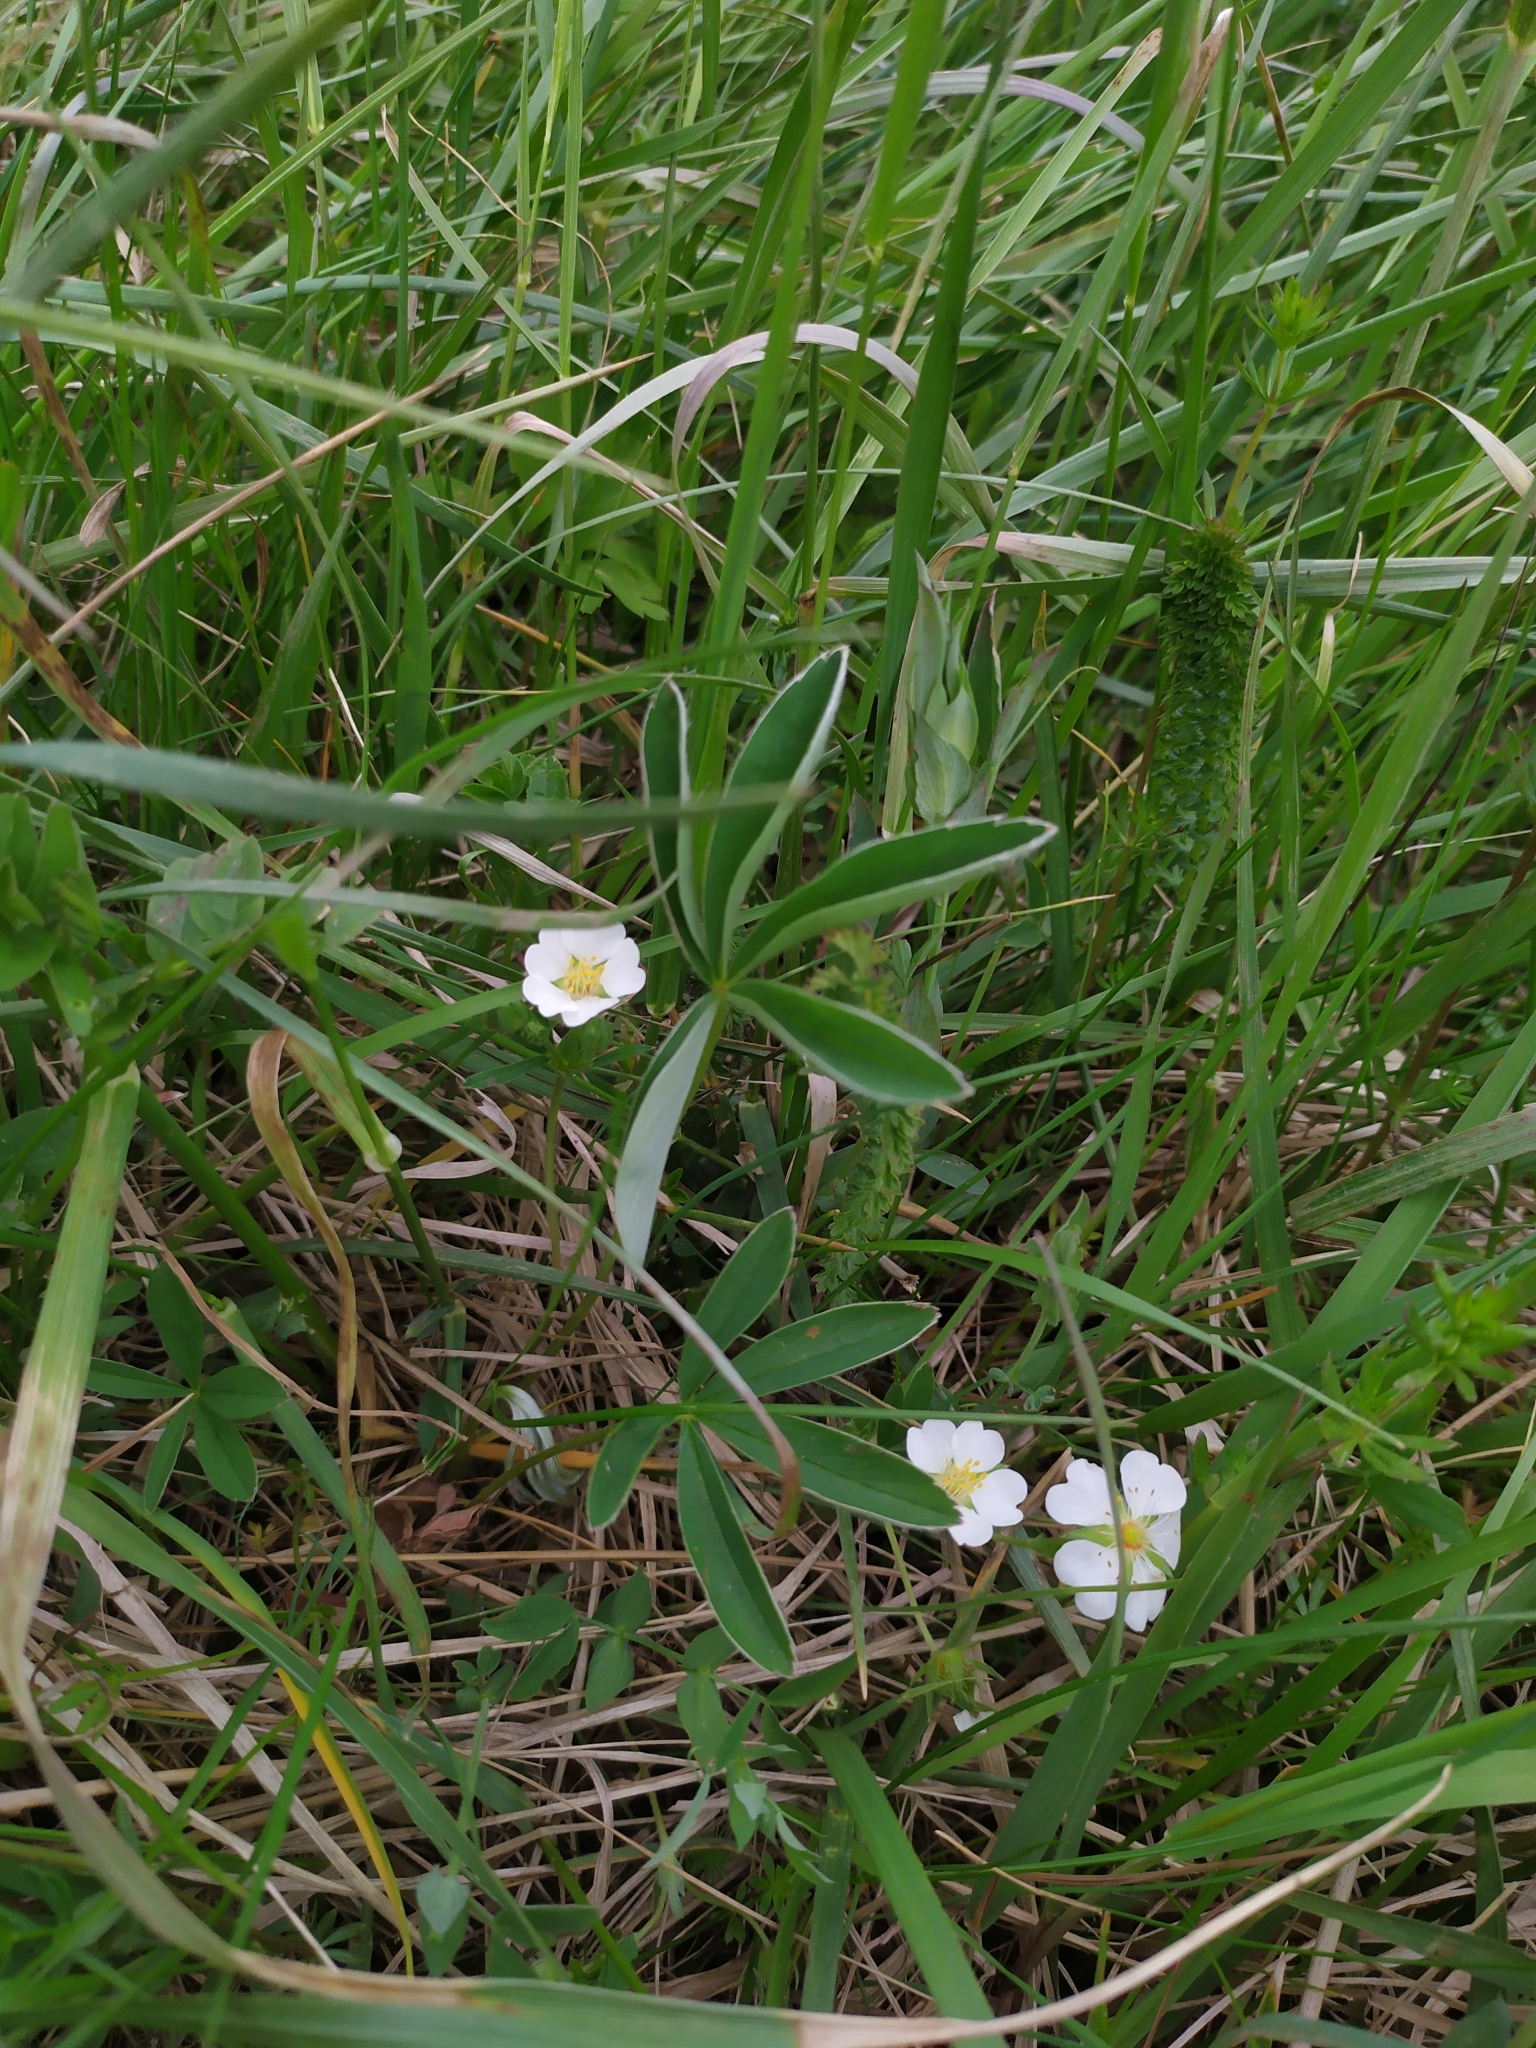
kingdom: Plantae
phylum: Tracheophyta
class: Magnoliopsida
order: Rosales
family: Rosaceae
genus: Potentilla
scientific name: Potentilla alba
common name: White cinquefoil
